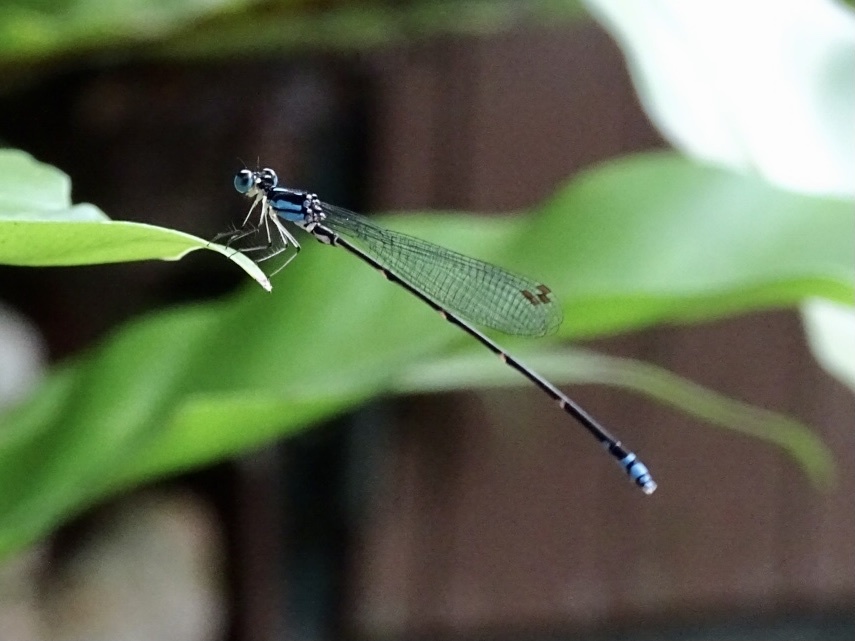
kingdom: Animalia
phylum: Arthropoda
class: Insecta
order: Odonata
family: Platycnemididae
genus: Coeliccia
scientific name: Coeliccia cyanomelas
